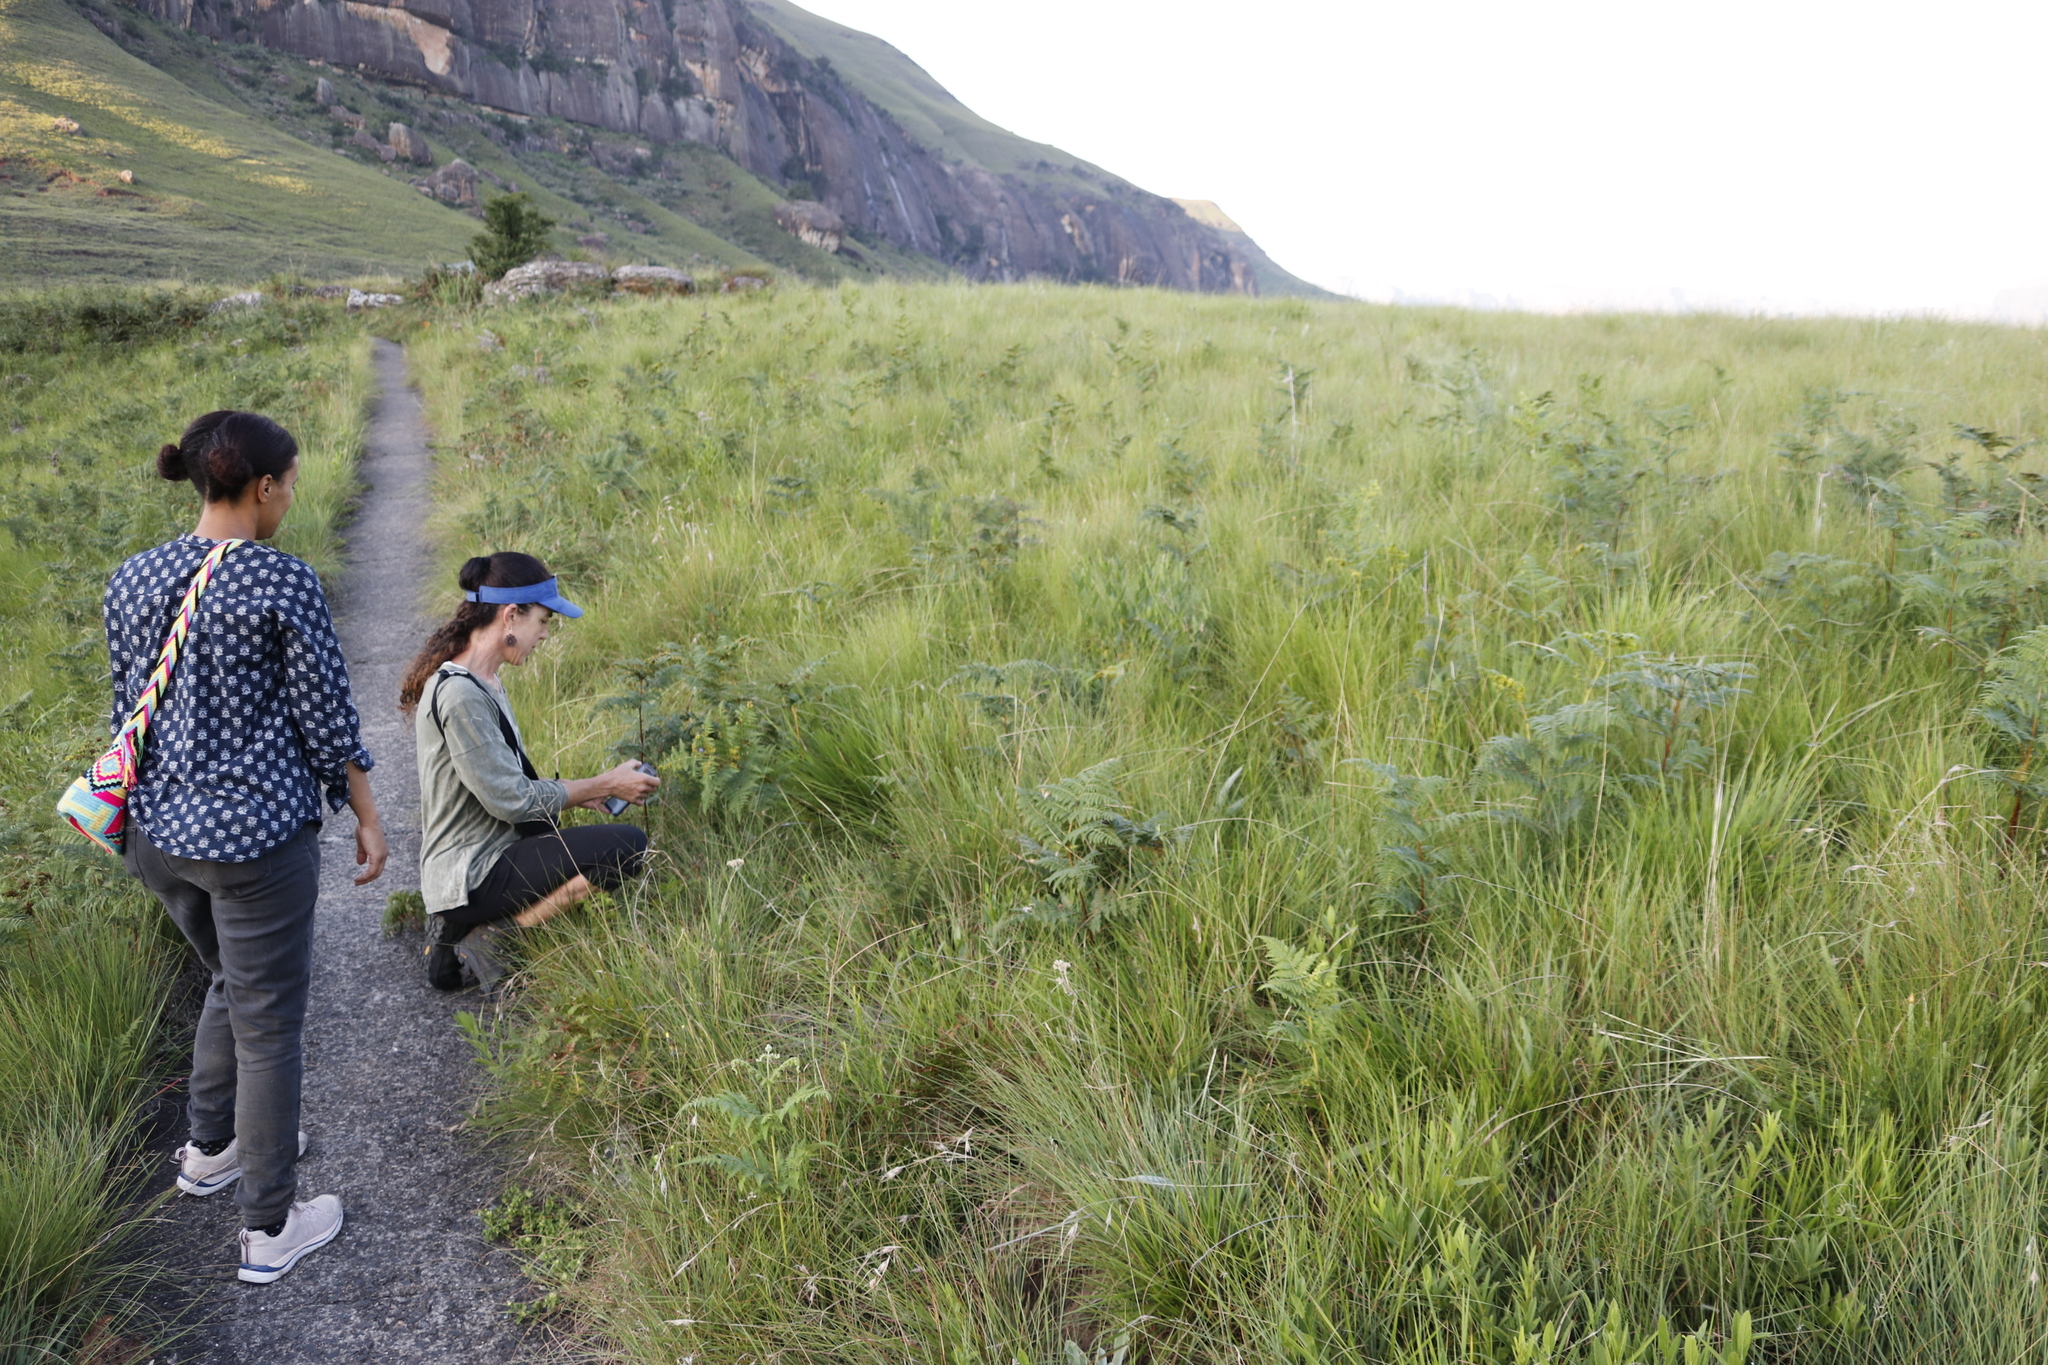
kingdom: Plantae
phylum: Tracheophyta
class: Polypodiopsida
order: Polypodiales
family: Dennstaedtiaceae
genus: Pteridium
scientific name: Pteridium aquilinum
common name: Bracken
